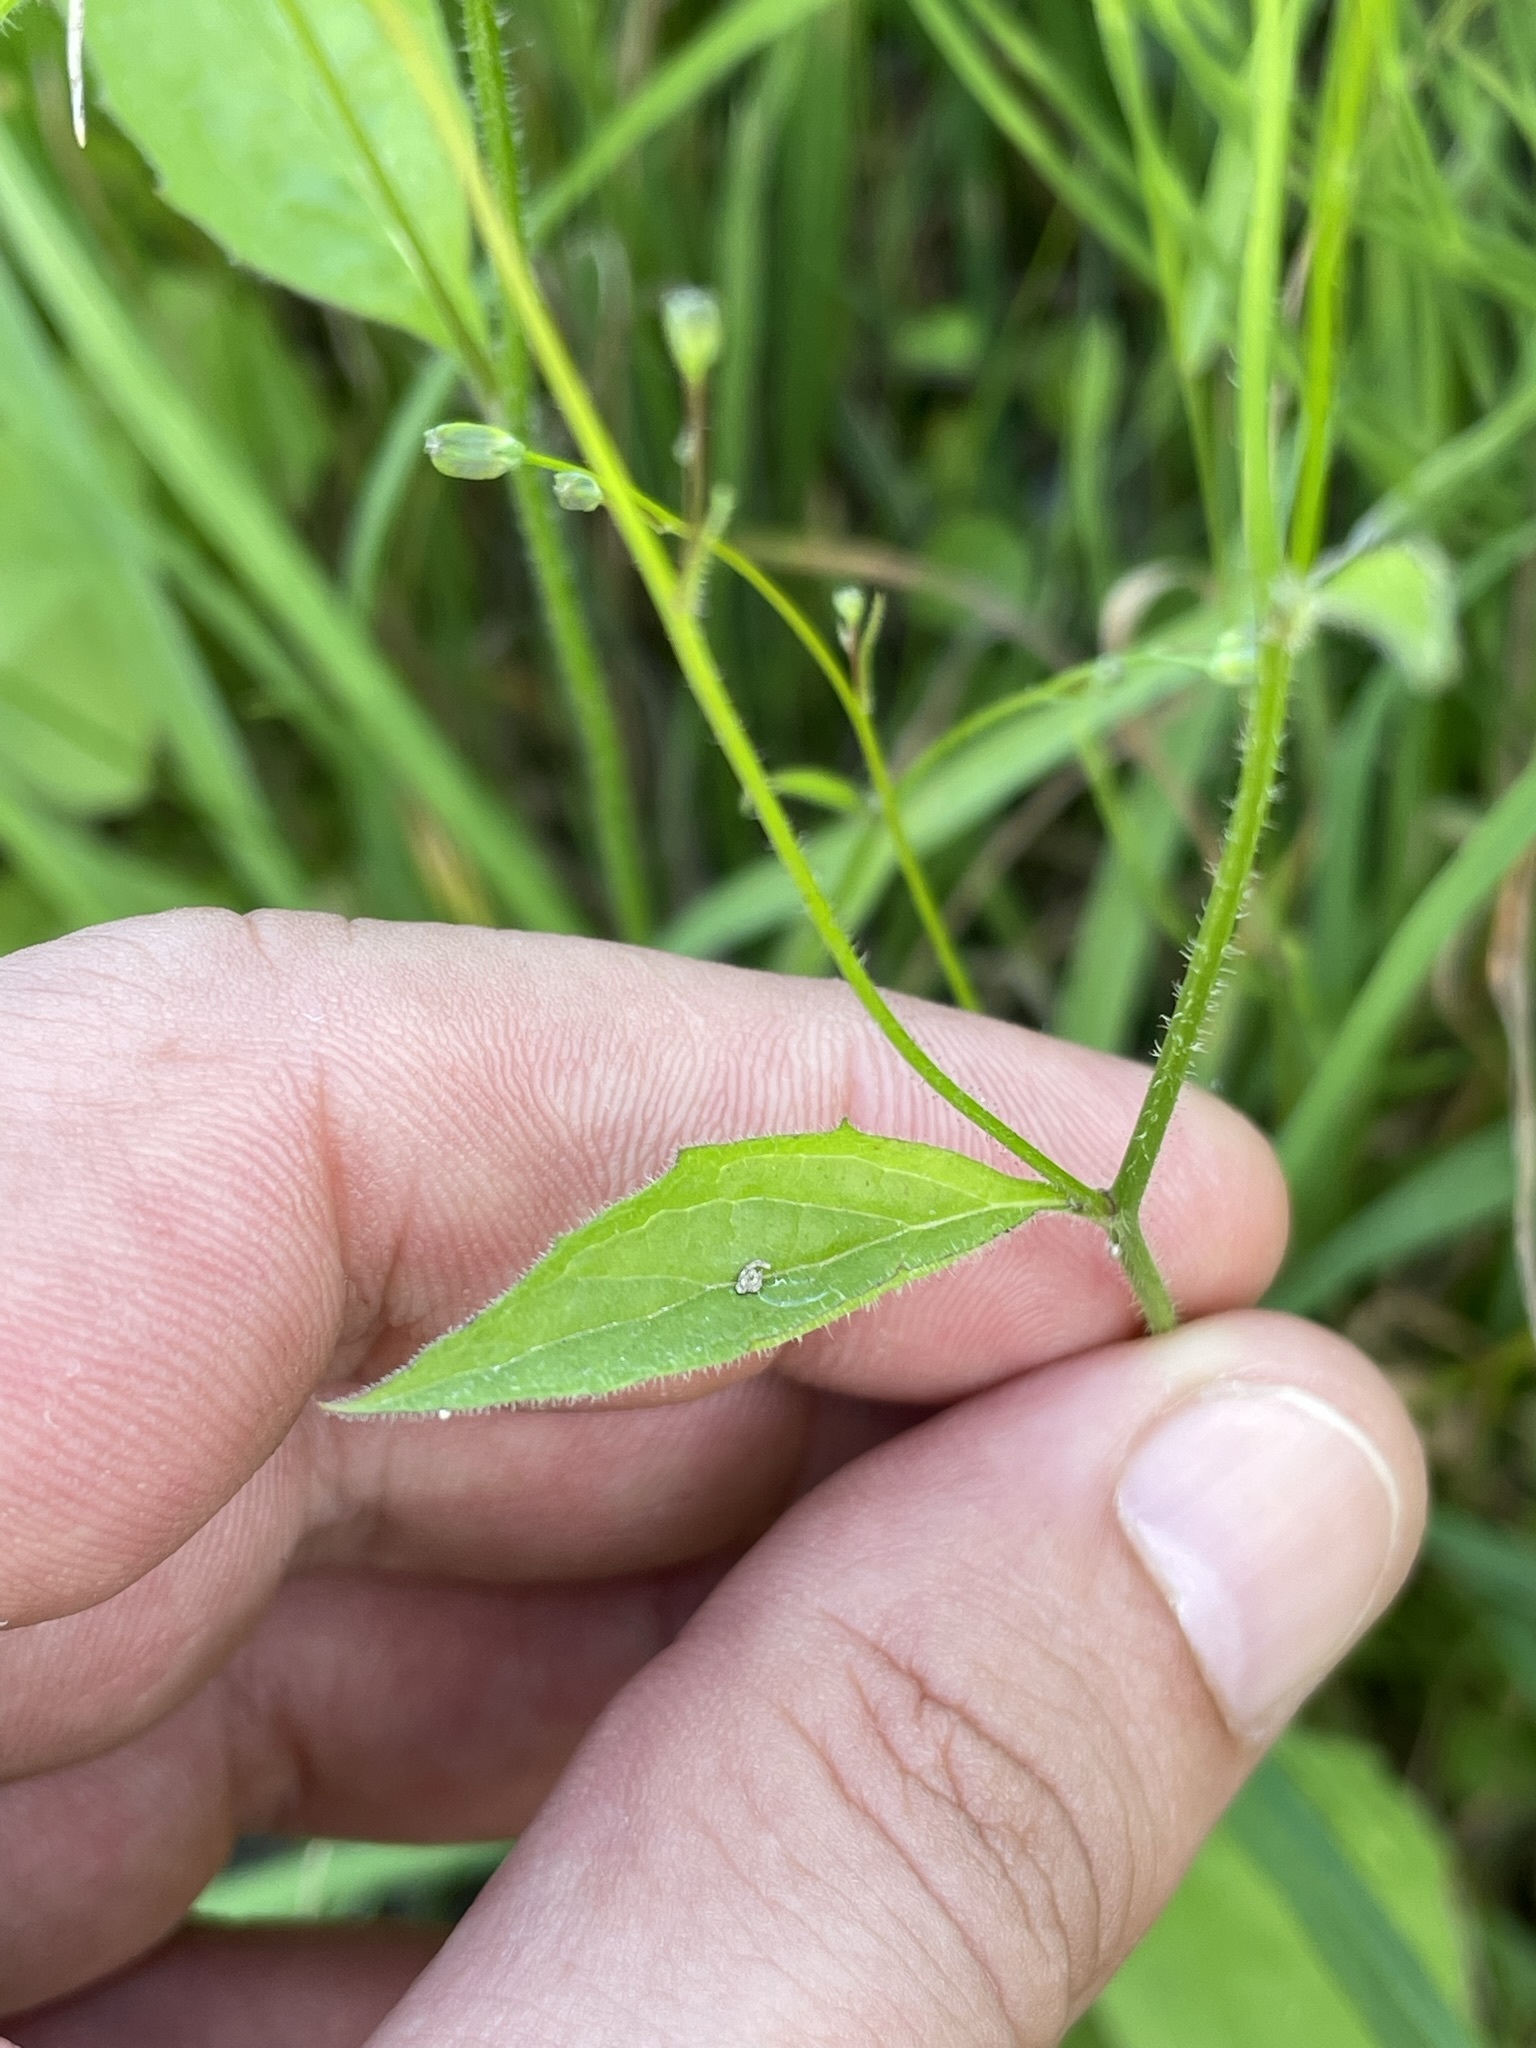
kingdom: Plantae
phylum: Tracheophyta
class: Magnoliopsida
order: Asterales
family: Asteraceae
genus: Lapsana
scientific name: Lapsana communis
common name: Nipplewort
